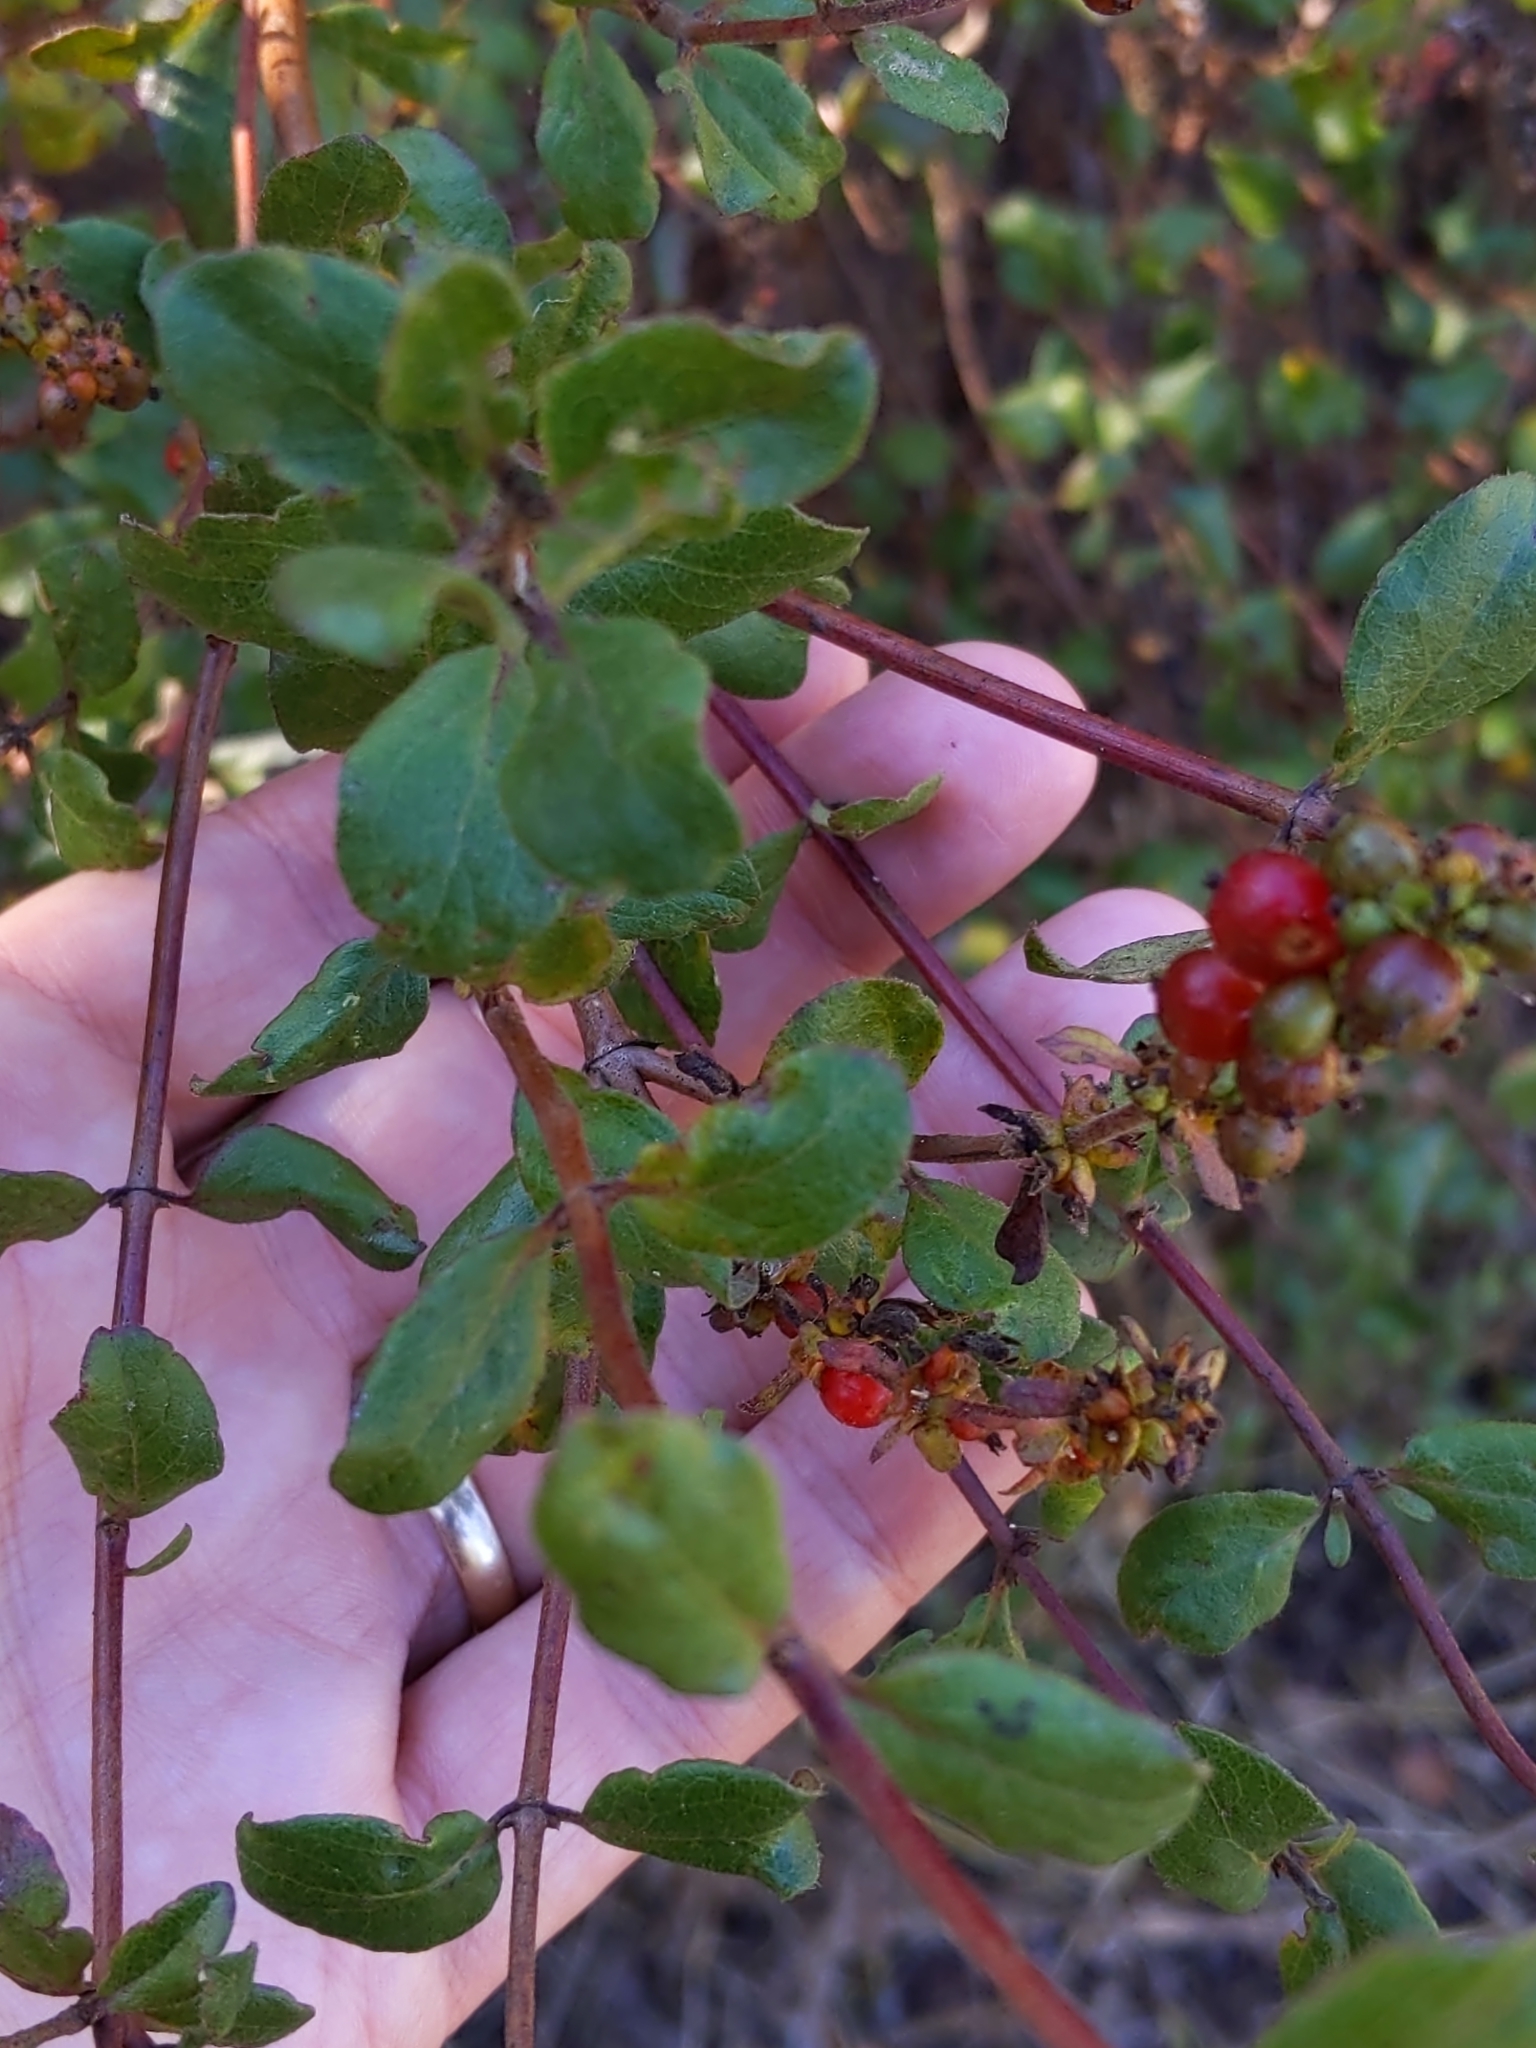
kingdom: Plantae
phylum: Tracheophyta
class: Magnoliopsida
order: Dipsacales
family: Caprifoliaceae
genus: Lonicera
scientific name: Lonicera subspicata
